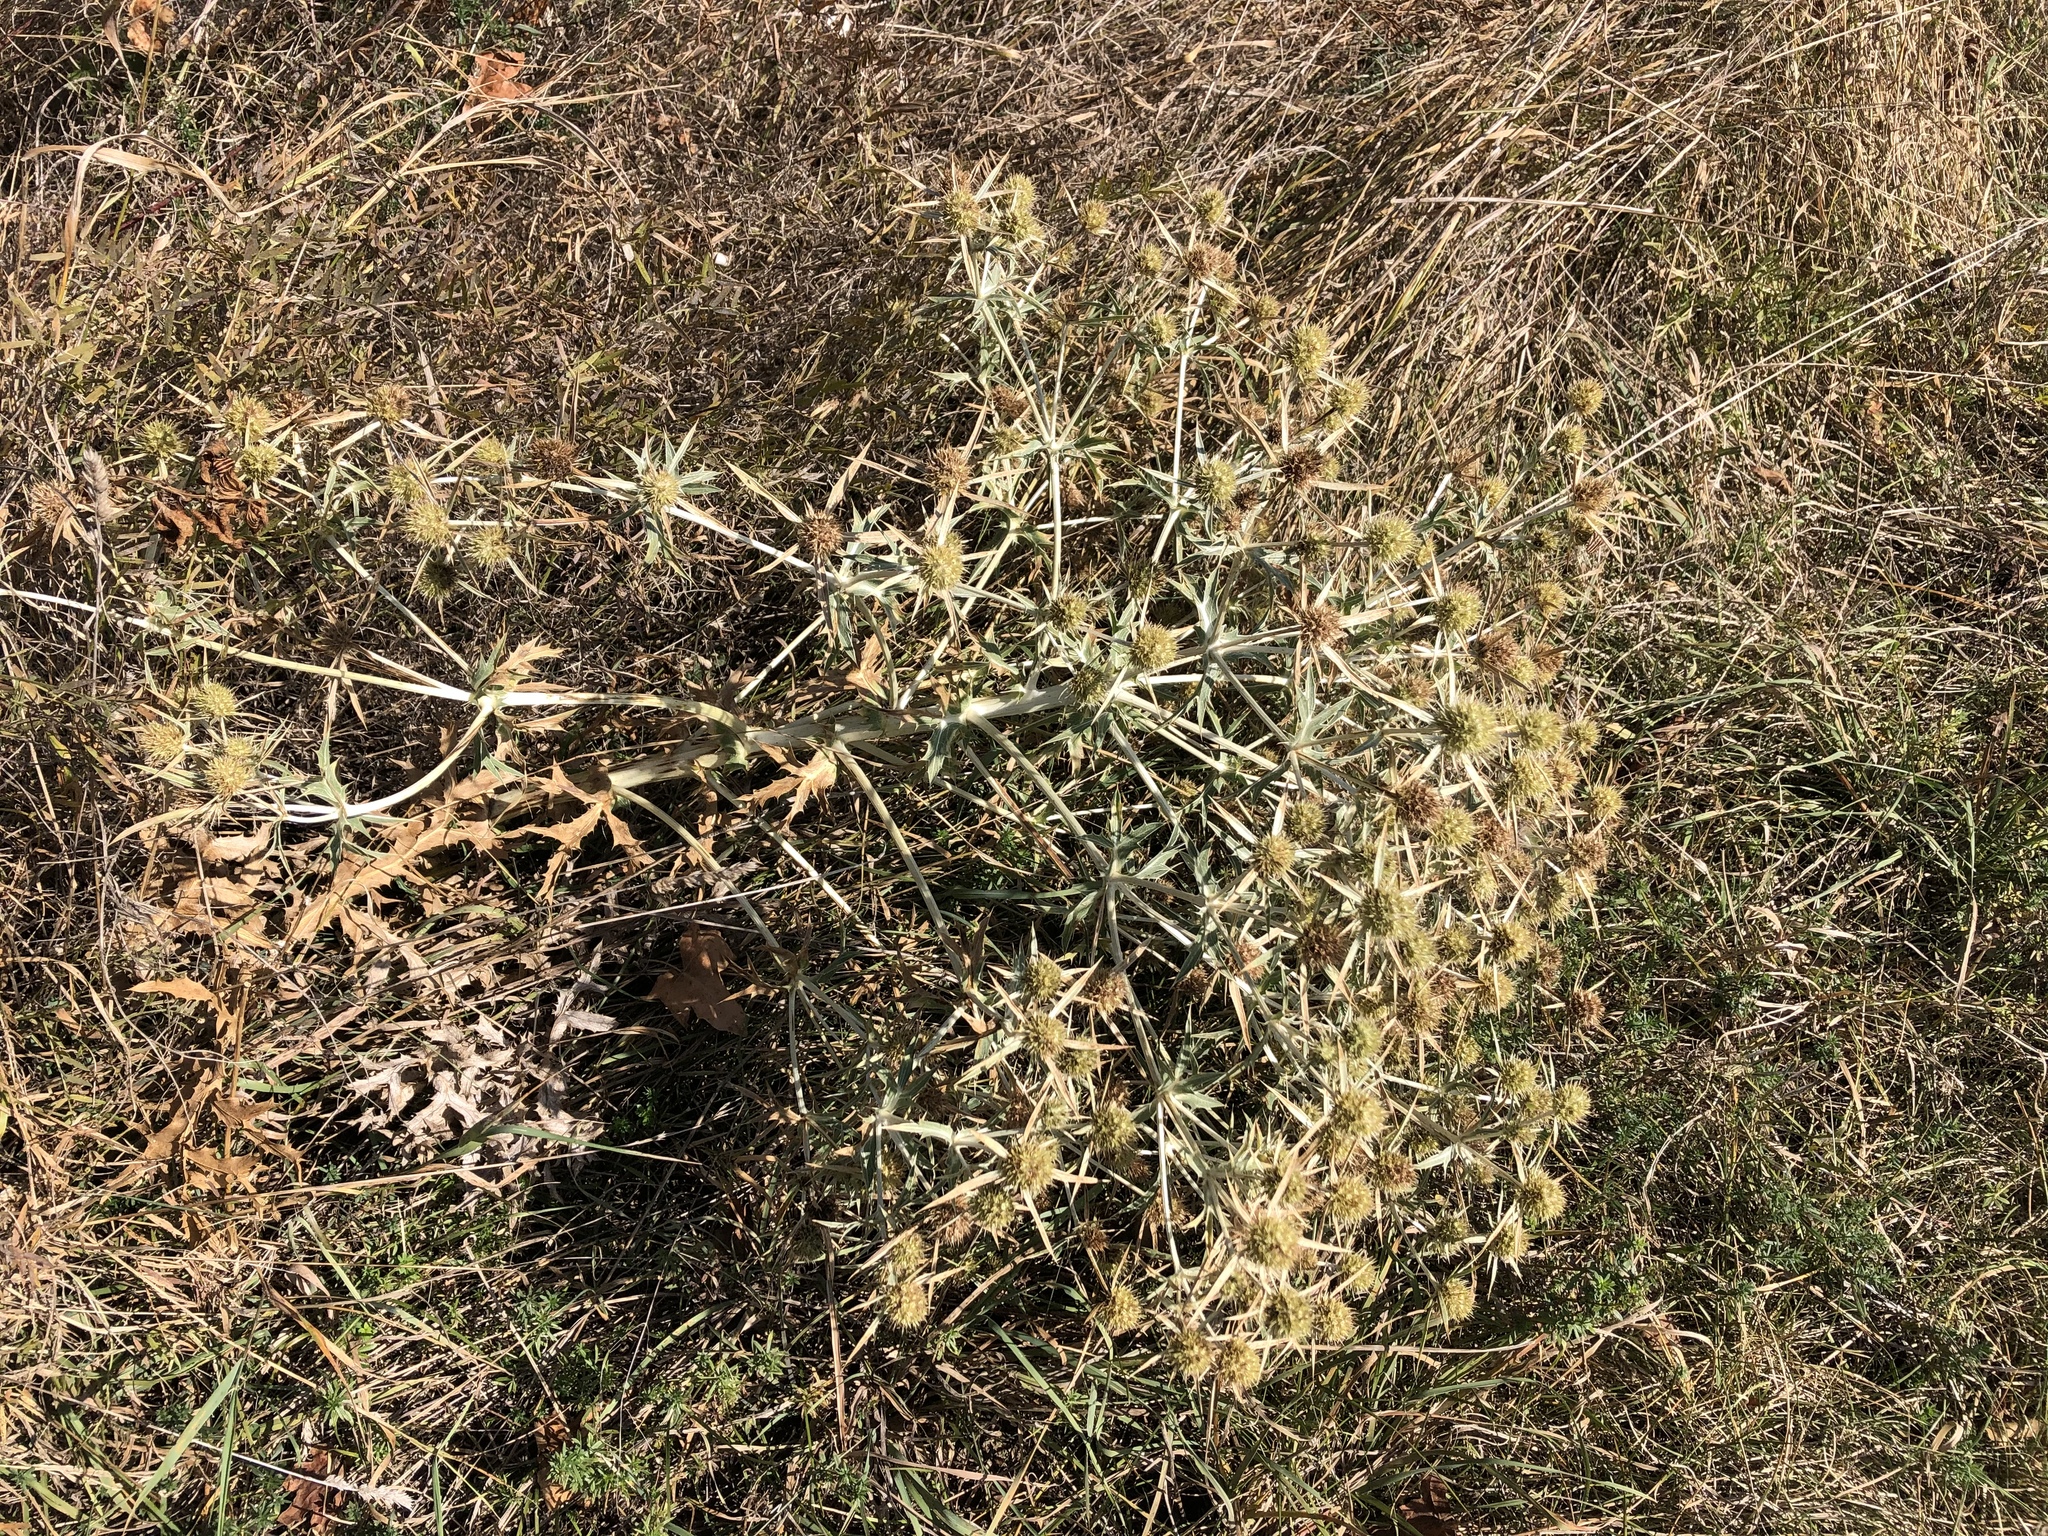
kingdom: Plantae
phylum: Tracheophyta
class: Magnoliopsida
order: Apiales
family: Apiaceae
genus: Eryngium
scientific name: Eryngium campestre
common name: Field eryngo
